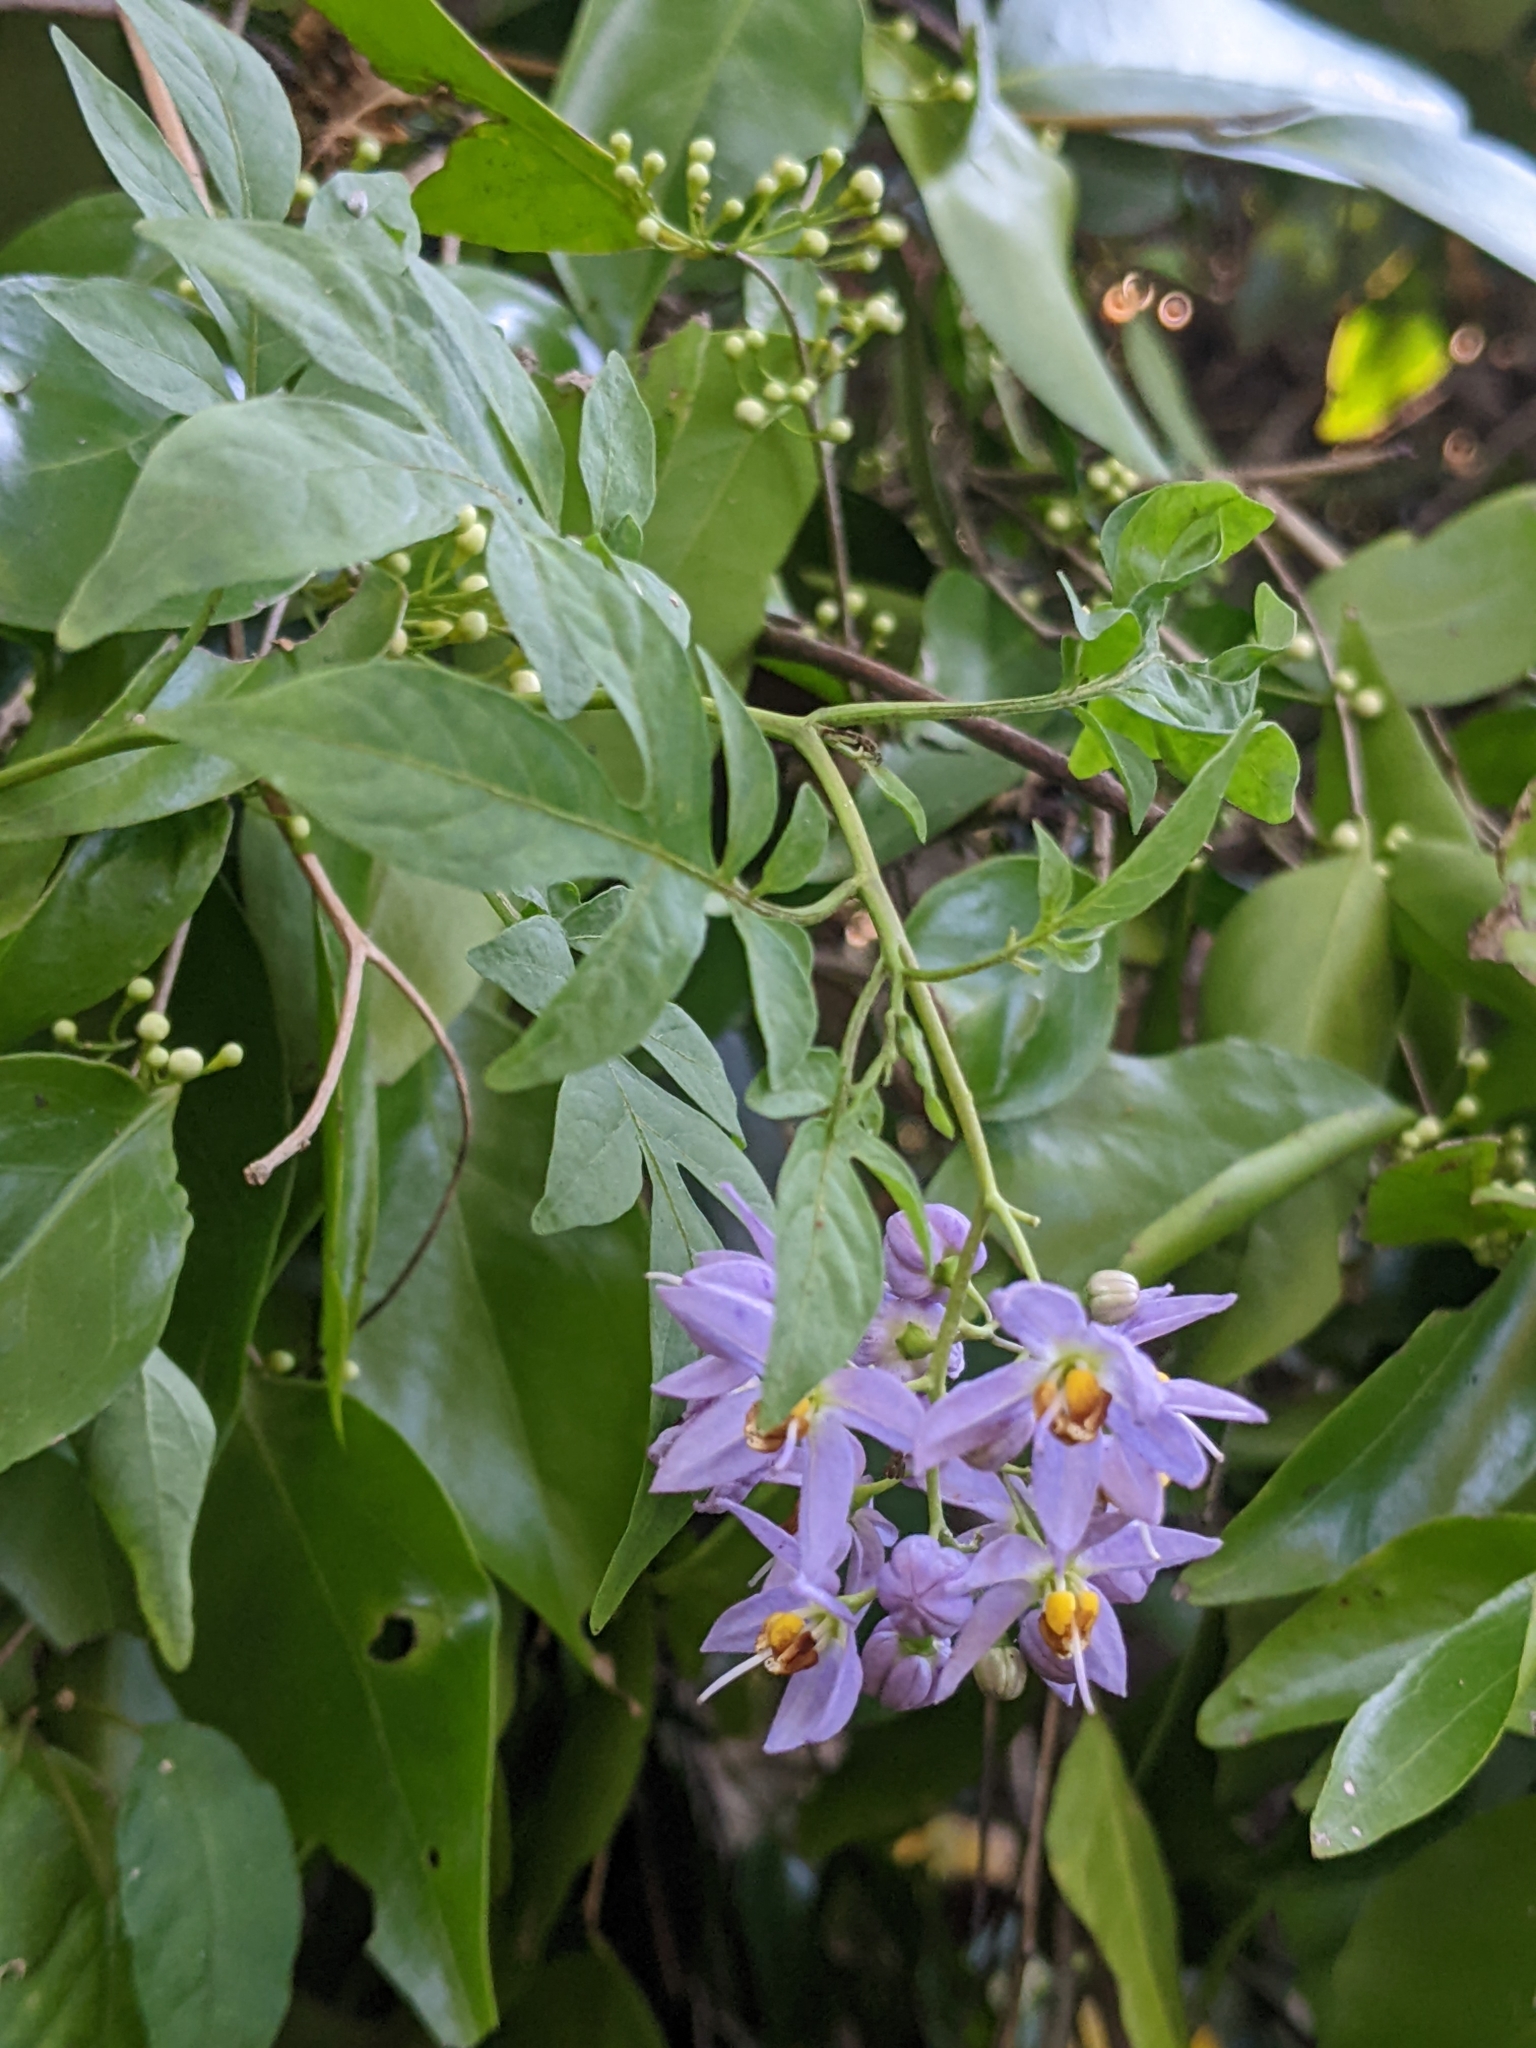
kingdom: Plantae
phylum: Tracheophyta
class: Magnoliopsida
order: Solanales
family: Solanaceae
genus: Solanum
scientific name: Solanum seaforthianum
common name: Brazilian nightshade
